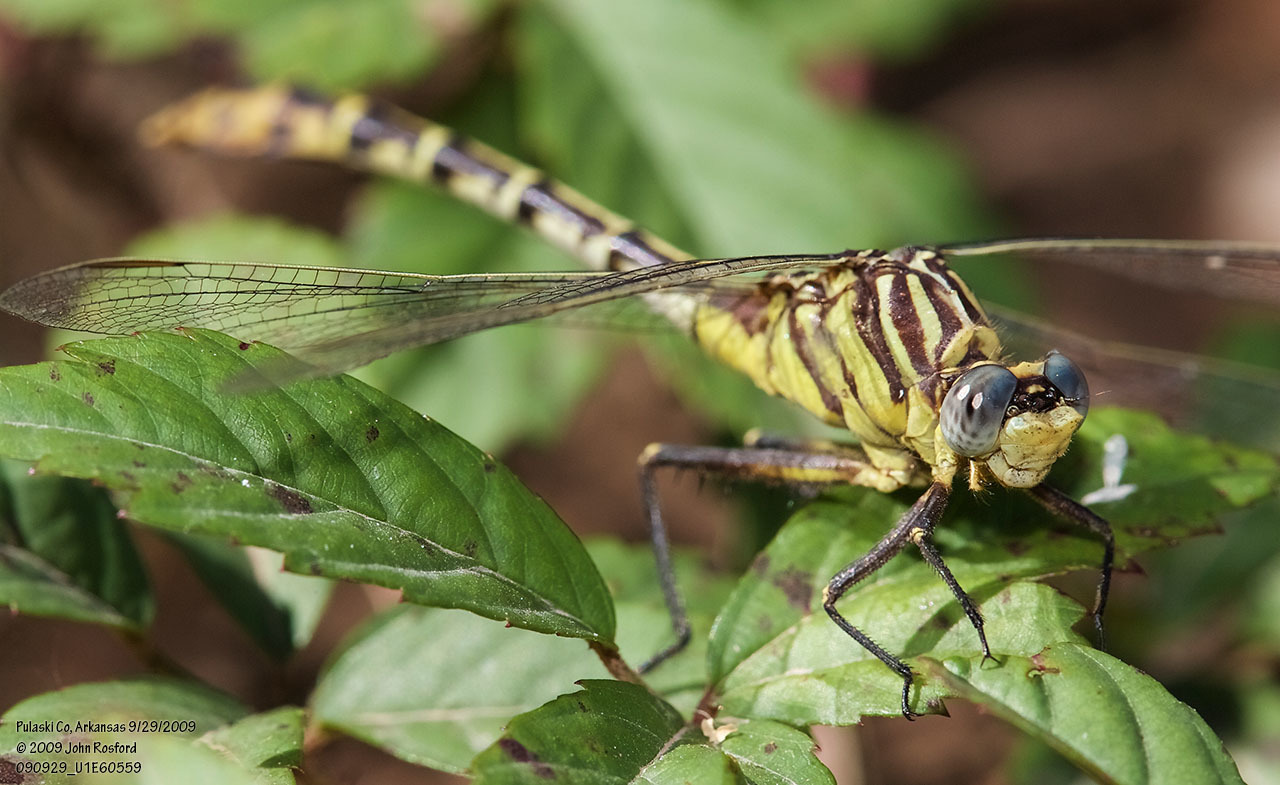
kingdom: Animalia
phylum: Arthropoda
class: Insecta
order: Odonata
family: Gomphidae
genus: Dromogomphus
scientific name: Dromogomphus spoliatus
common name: Flag-tailed spinyleg
